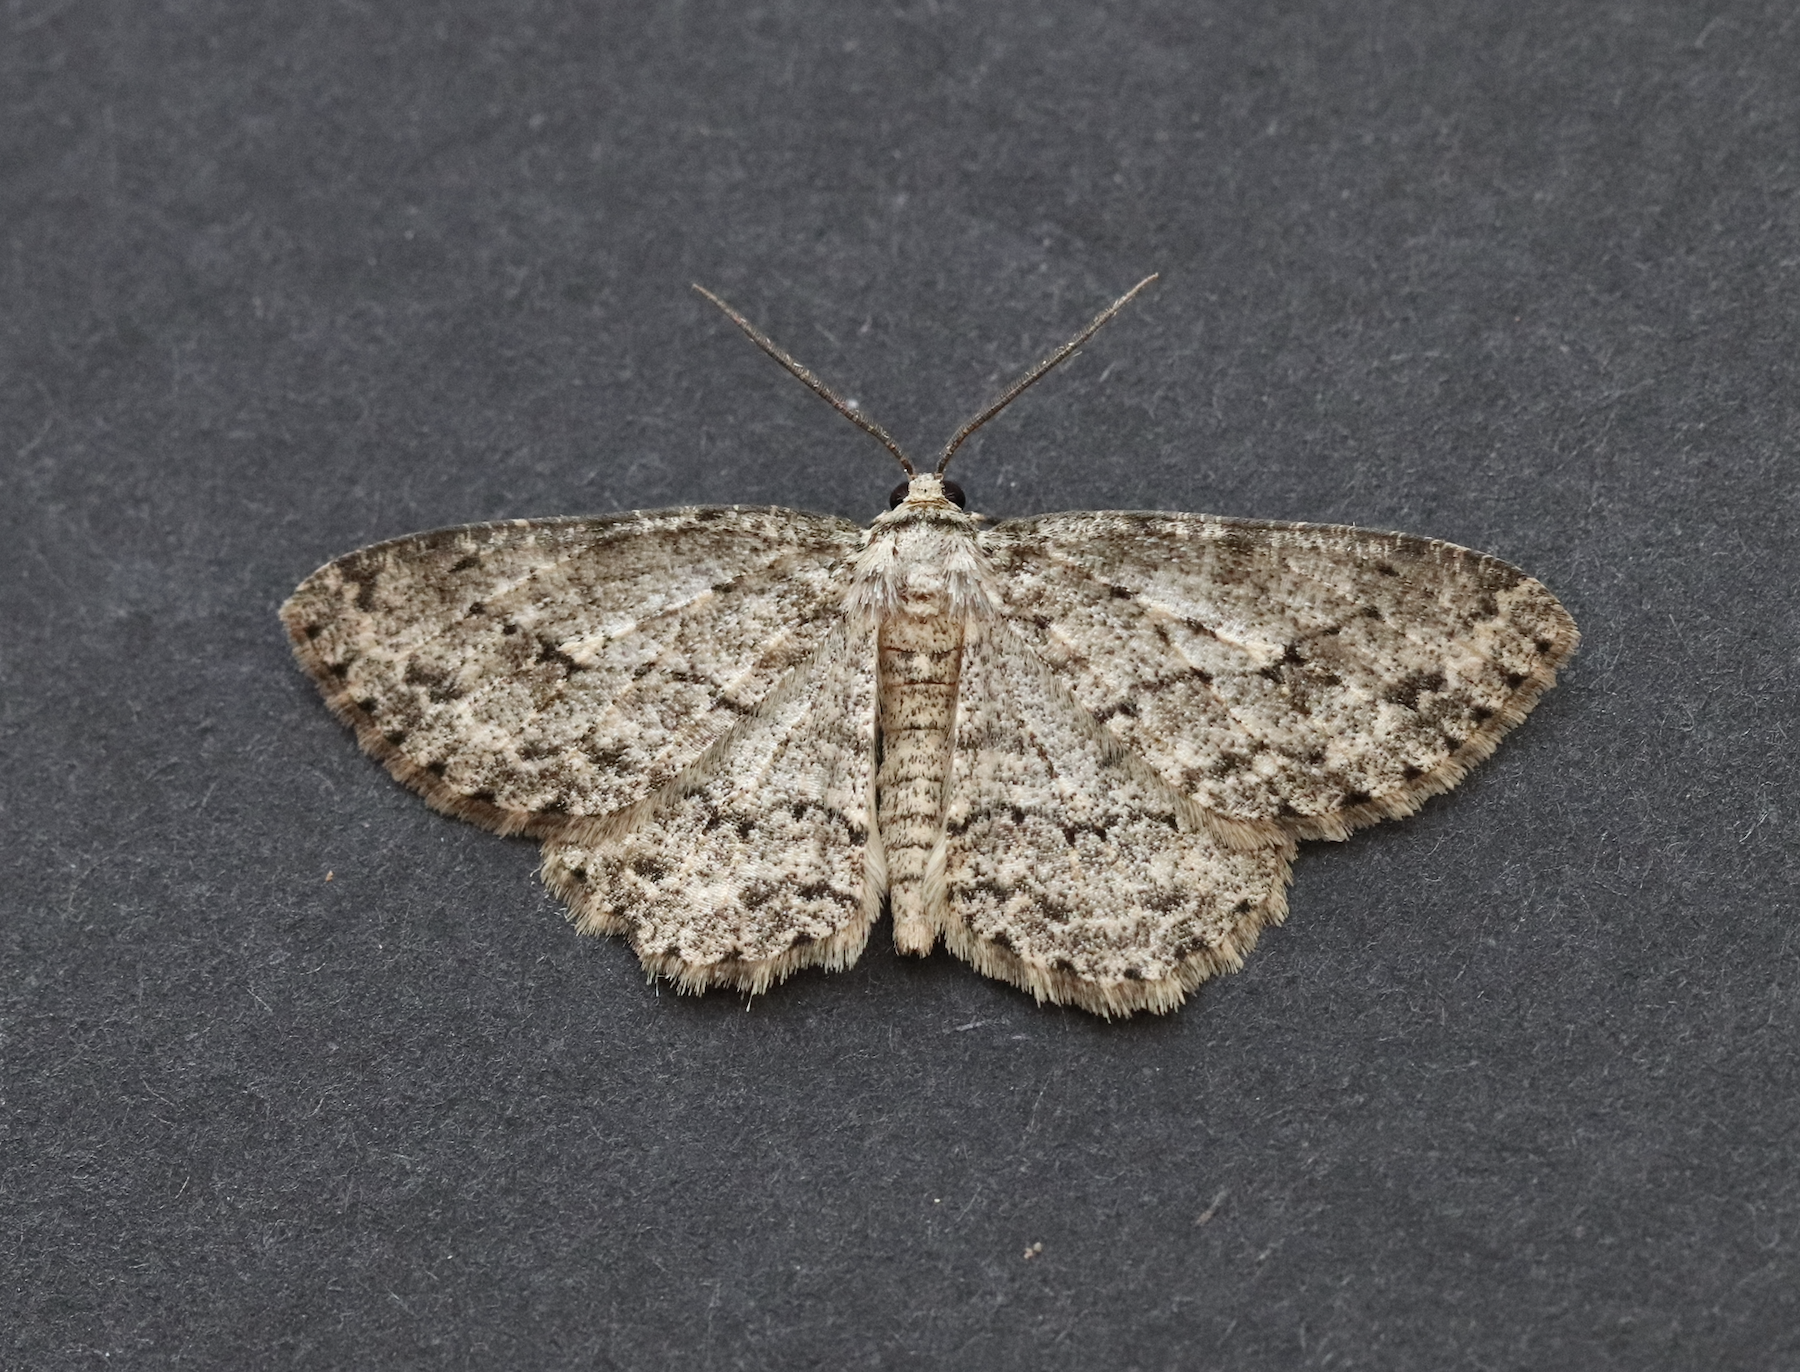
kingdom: Animalia
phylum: Arthropoda
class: Insecta
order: Lepidoptera
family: Geometridae
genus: Ectropis
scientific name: Ectropis crepuscularia
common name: Engrailed
